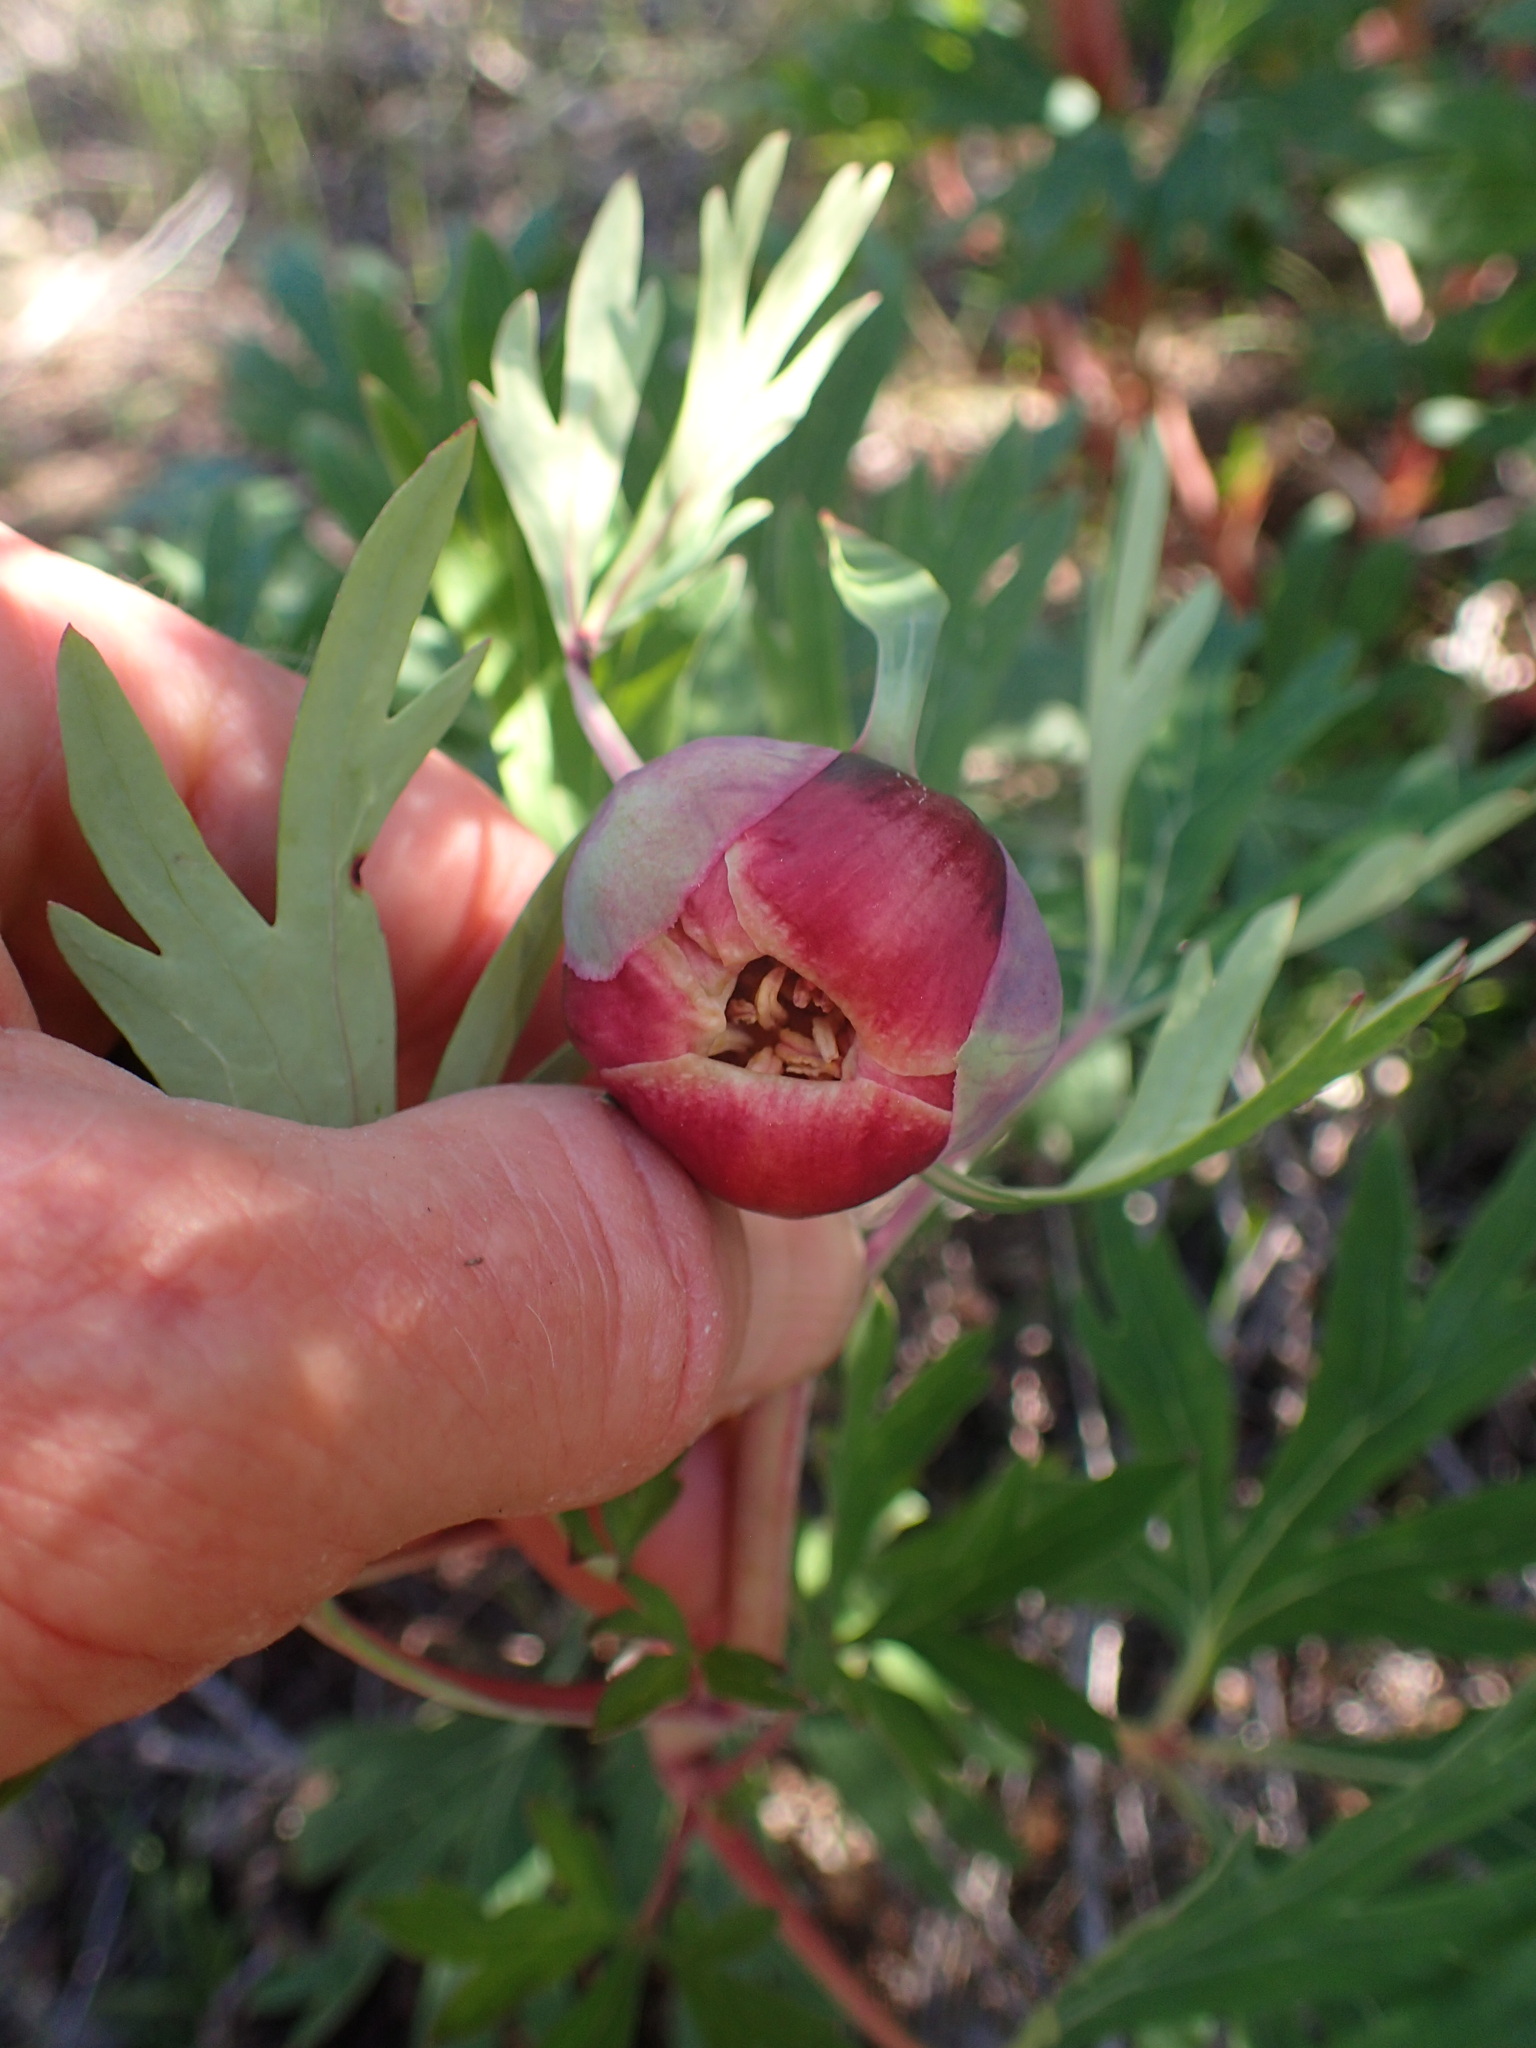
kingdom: Plantae
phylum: Tracheophyta
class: Magnoliopsida
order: Saxifragales
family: Paeoniaceae
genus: Paeonia
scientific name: Paeonia californica
